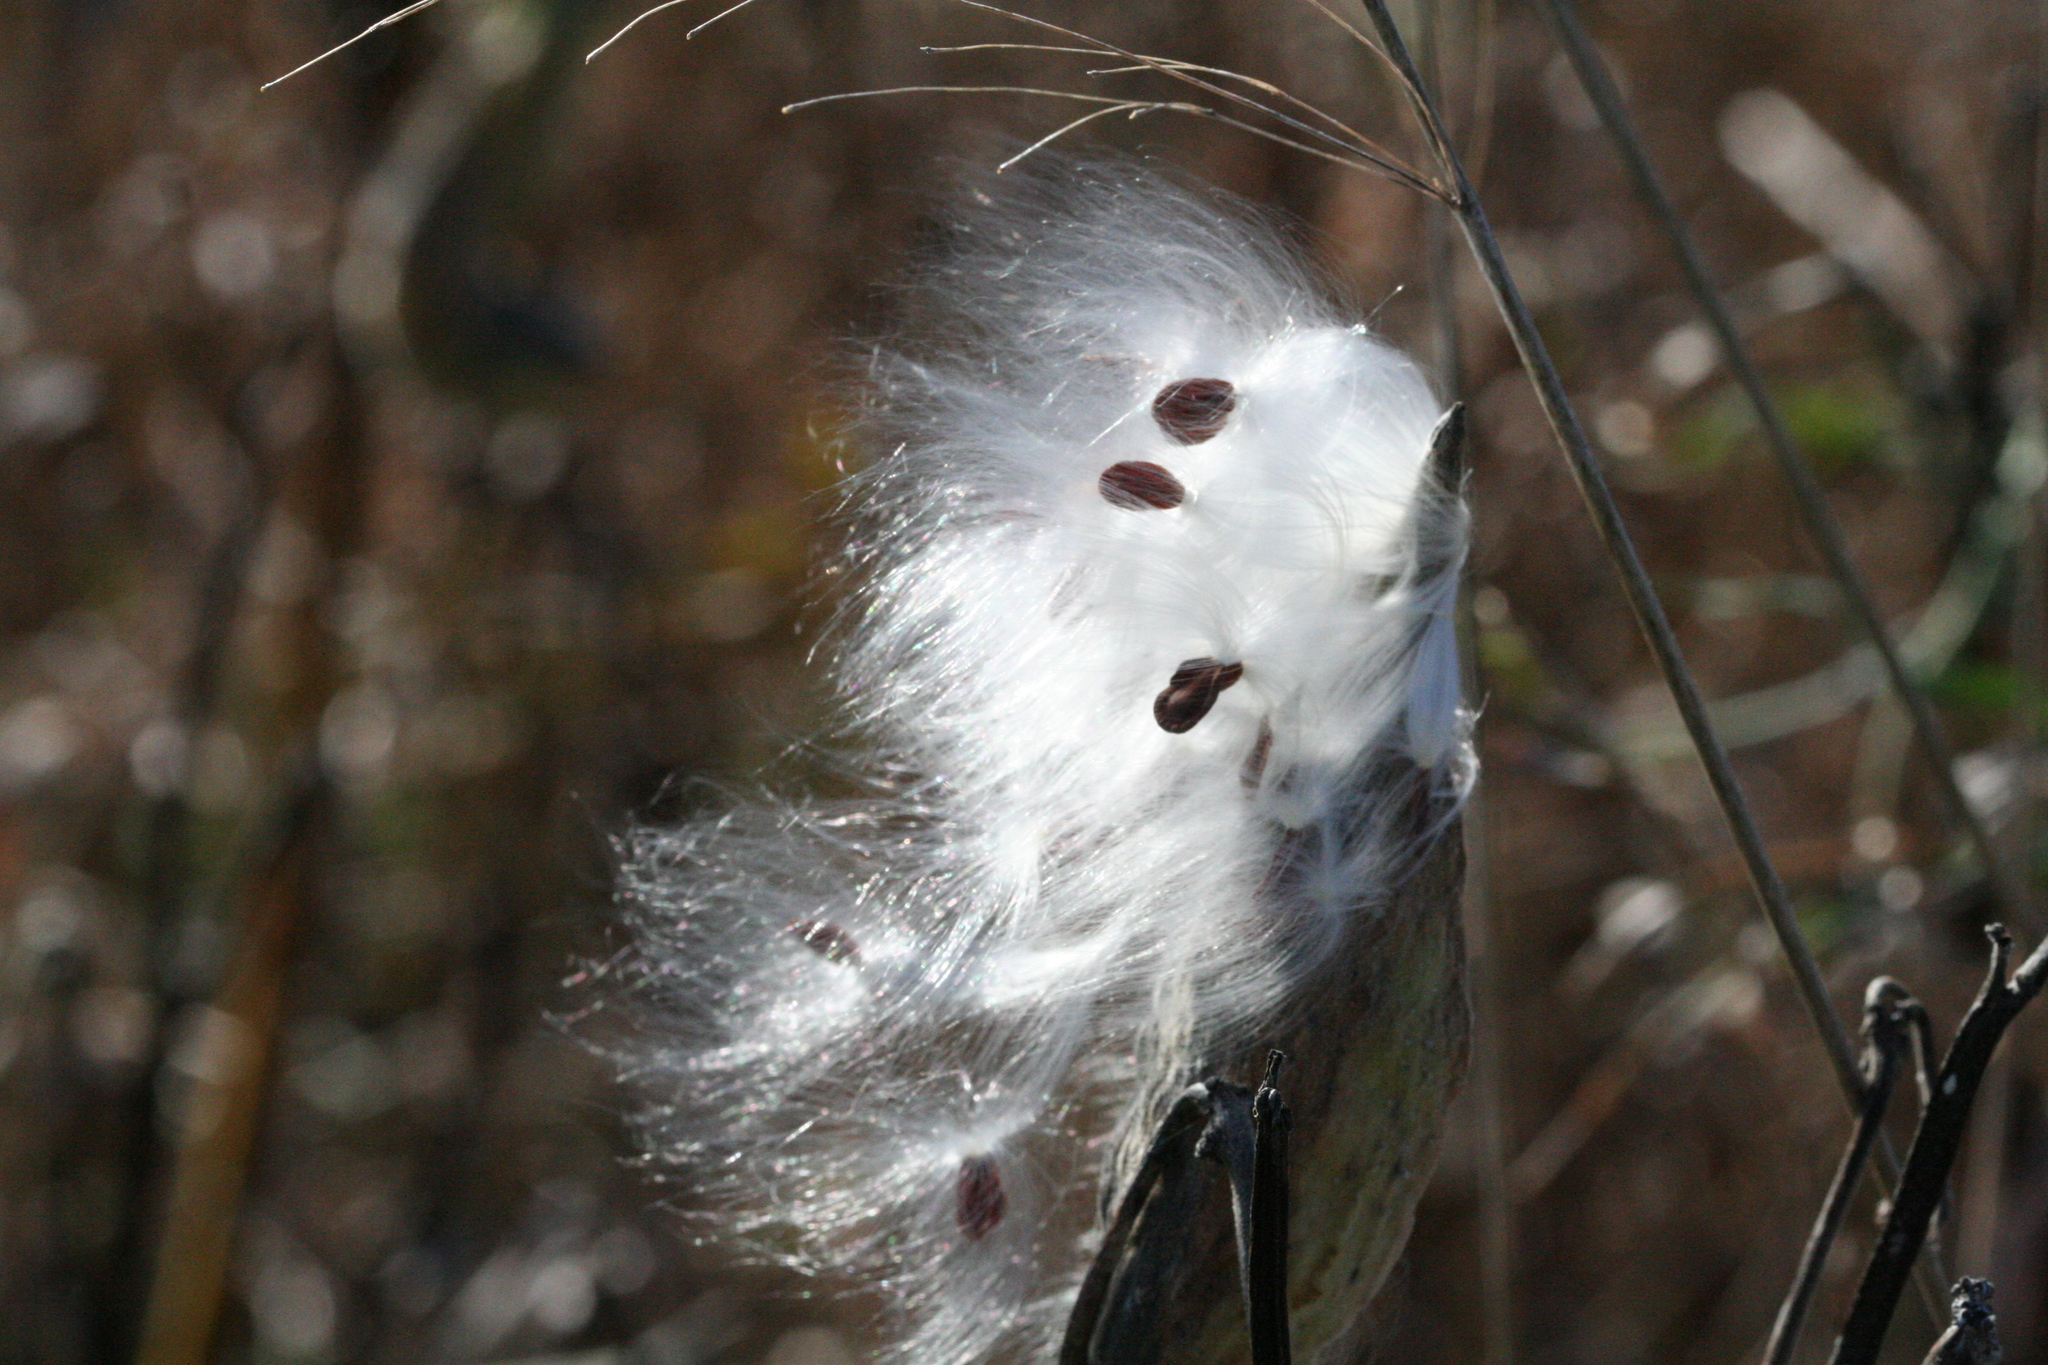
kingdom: Plantae
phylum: Tracheophyta
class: Magnoliopsida
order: Gentianales
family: Apocynaceae
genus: Asclepias
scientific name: Asclepias syriaca
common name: Common milkweed
